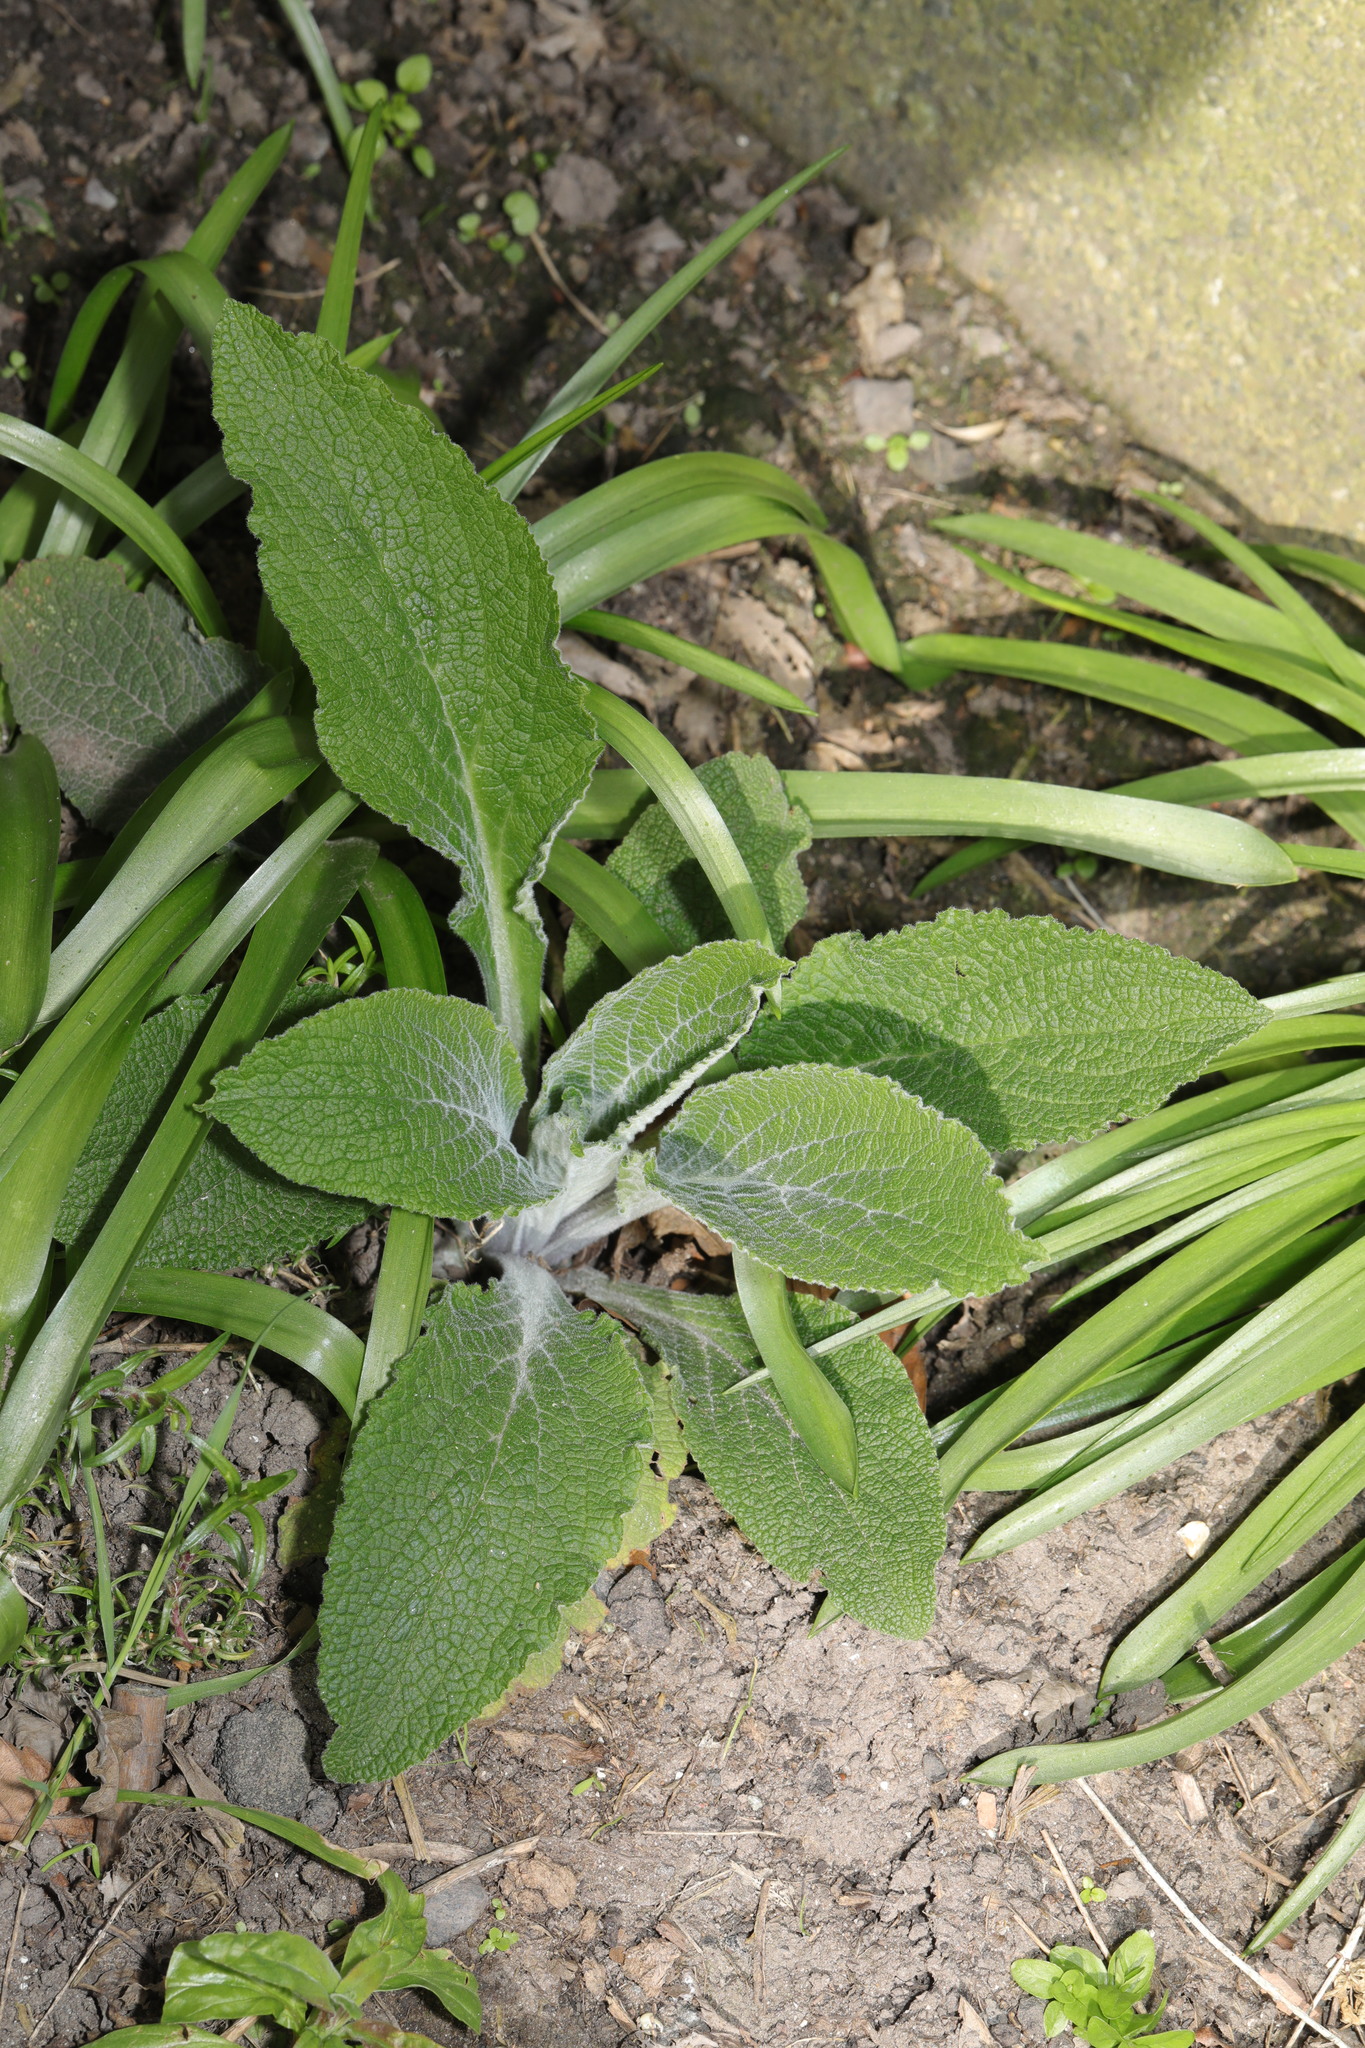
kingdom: Plantae
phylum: Tracheophyta
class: Magnoliopsida
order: Lamiales
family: Plantaginaceae
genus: Digitalis
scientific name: Digitalis purpurea
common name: Foxglove
